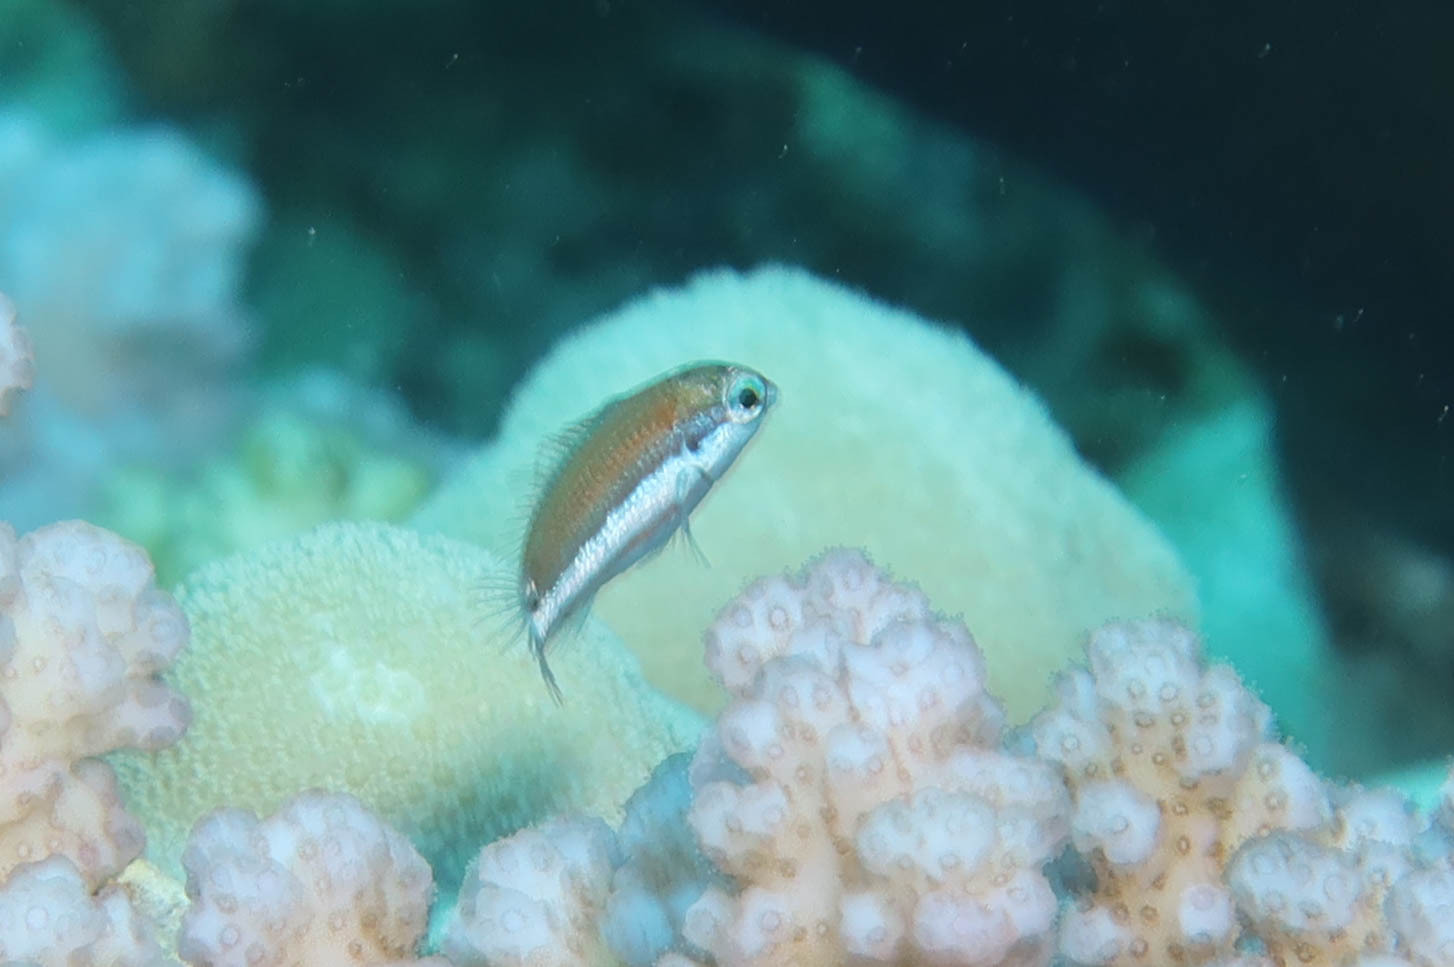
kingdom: Animalia
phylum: Chordata
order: Perciformes
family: Labridae
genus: Thalassoma
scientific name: Thalassoma rueppellii
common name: Klunzinger's wrasse
